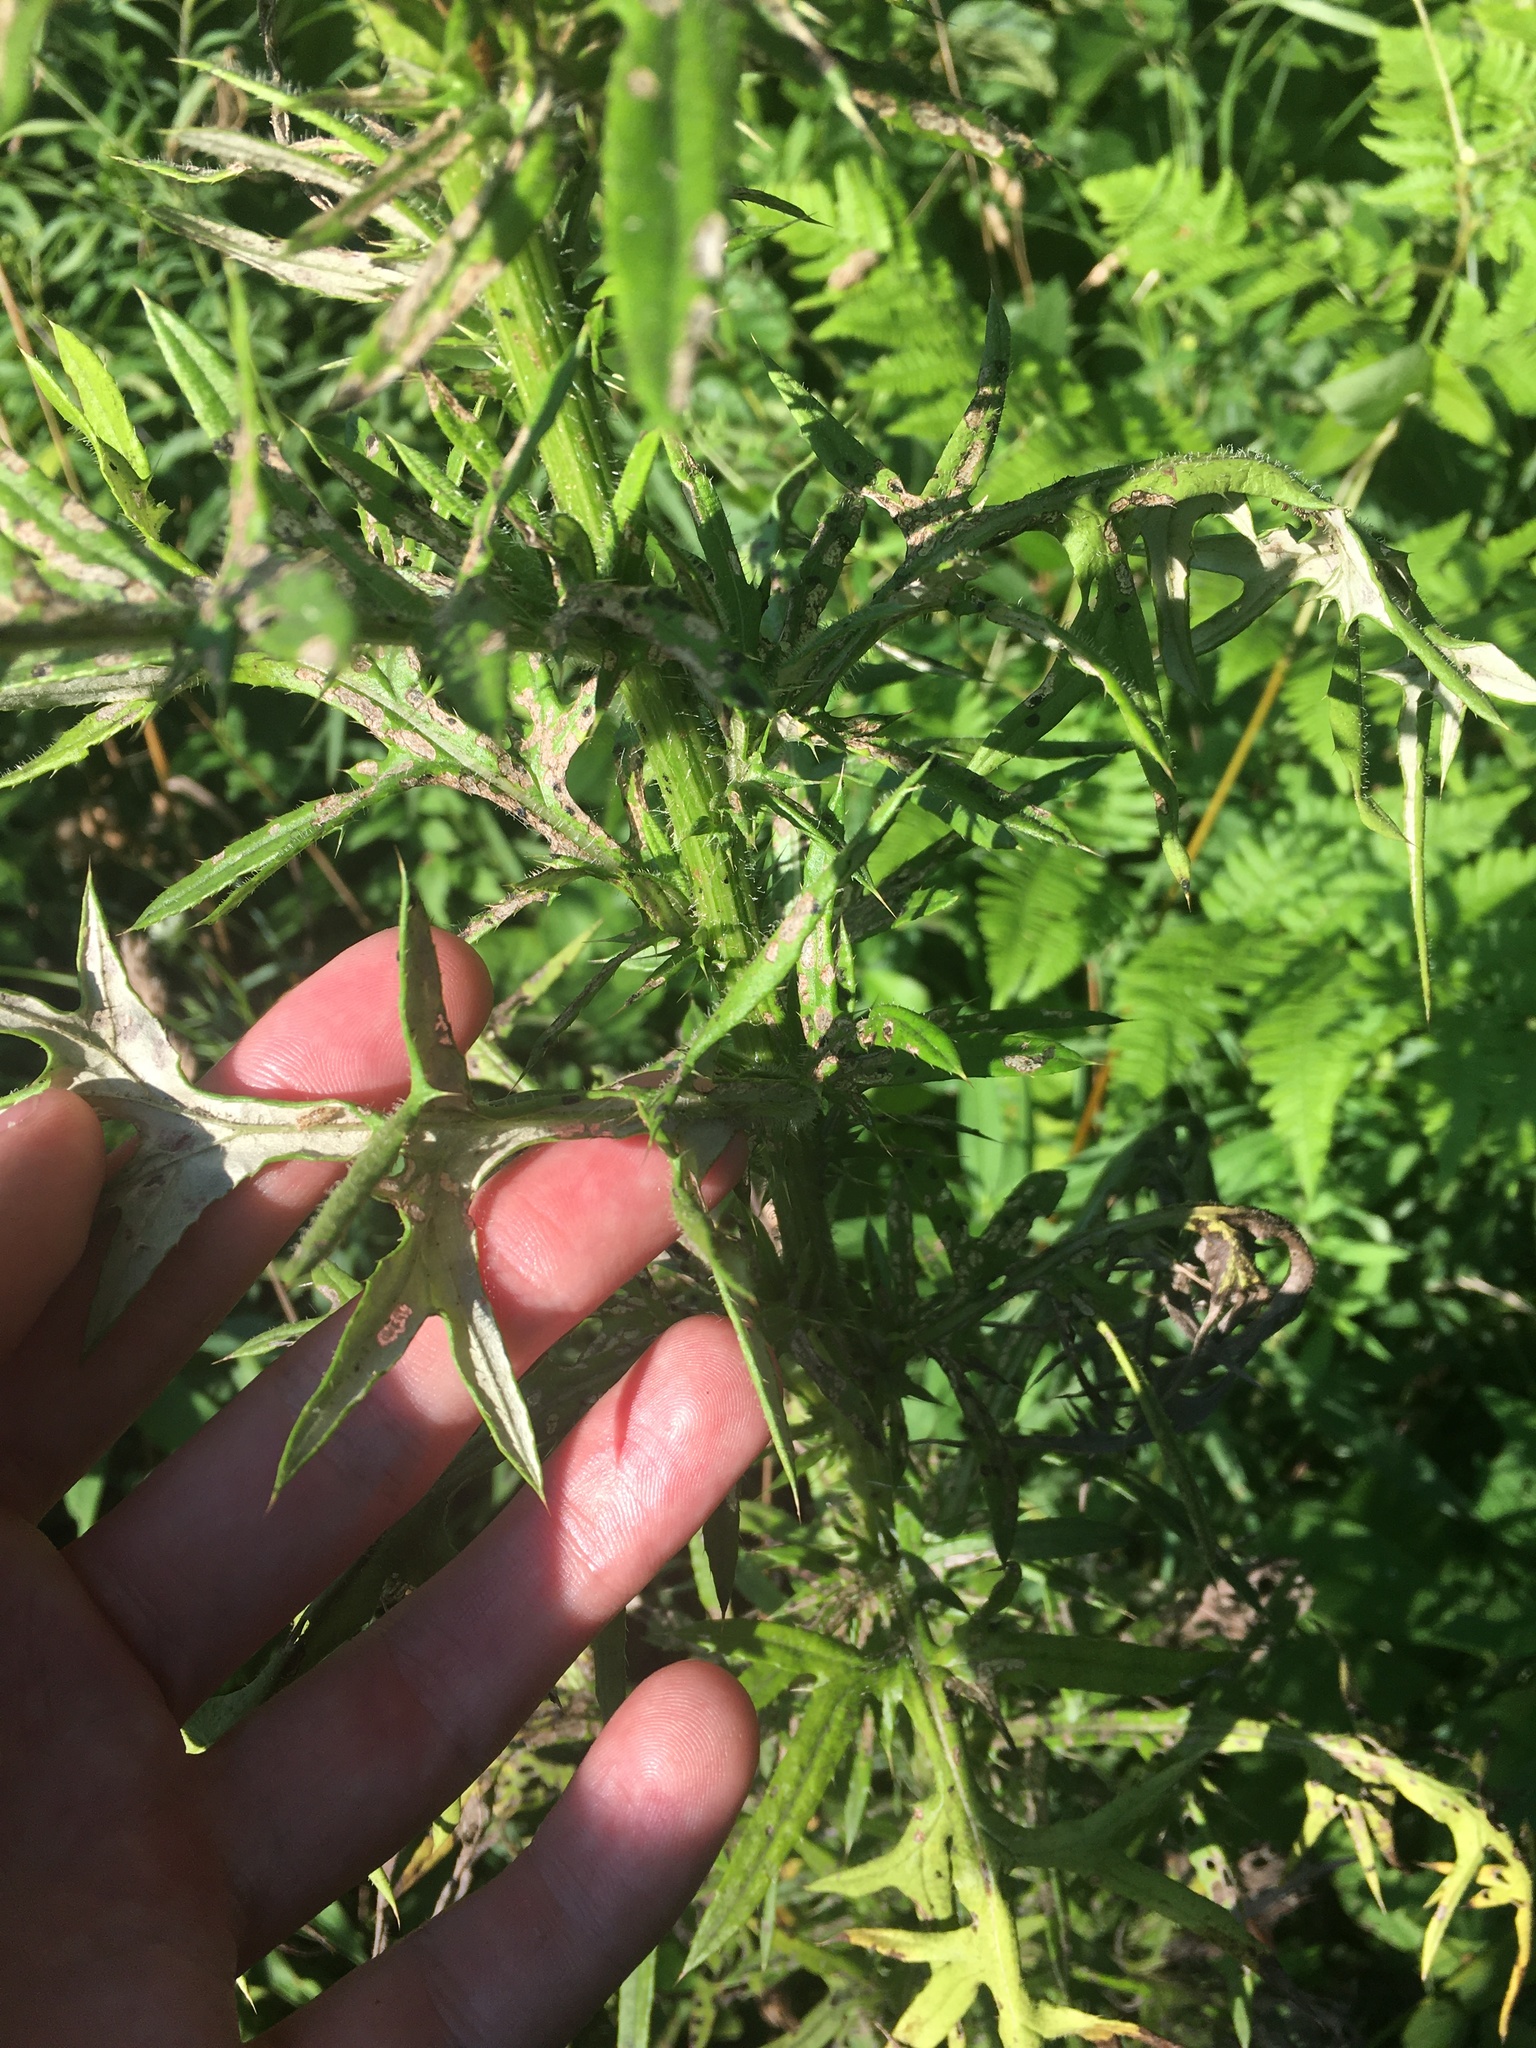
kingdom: Plantae
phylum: Tracheophyta
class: Magnoliopsida
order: Asterales
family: Asteraceae
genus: Cirsium
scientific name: Cirsium discolor
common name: Field thistle
